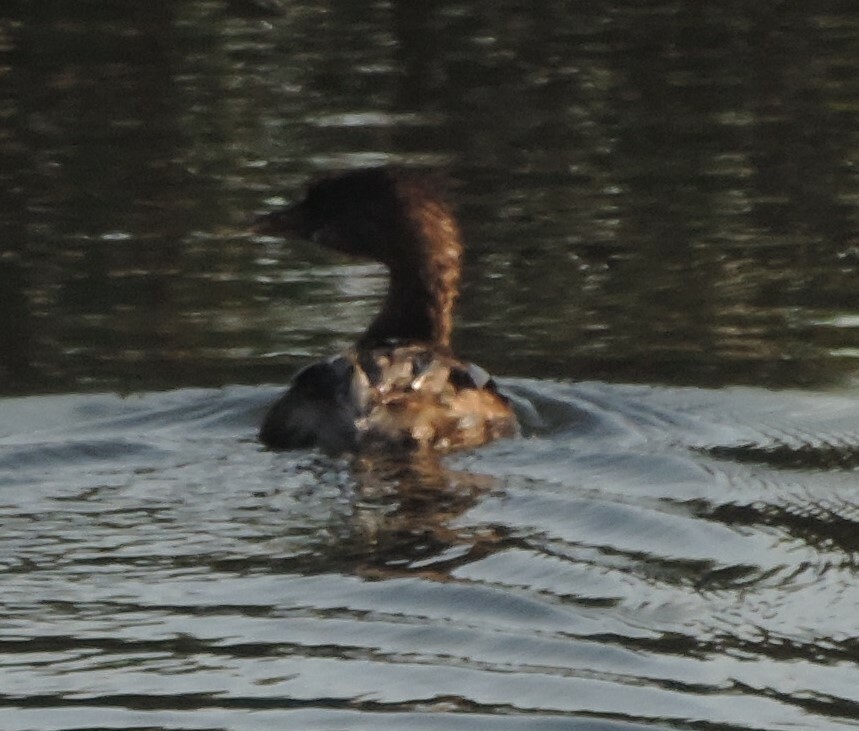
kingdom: Animalia
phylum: Chordata
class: Aves
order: Podicipediformes
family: Podicipedidae
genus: Podilymbus
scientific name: Podilymbus podiceps
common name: Pied-billed grebe
